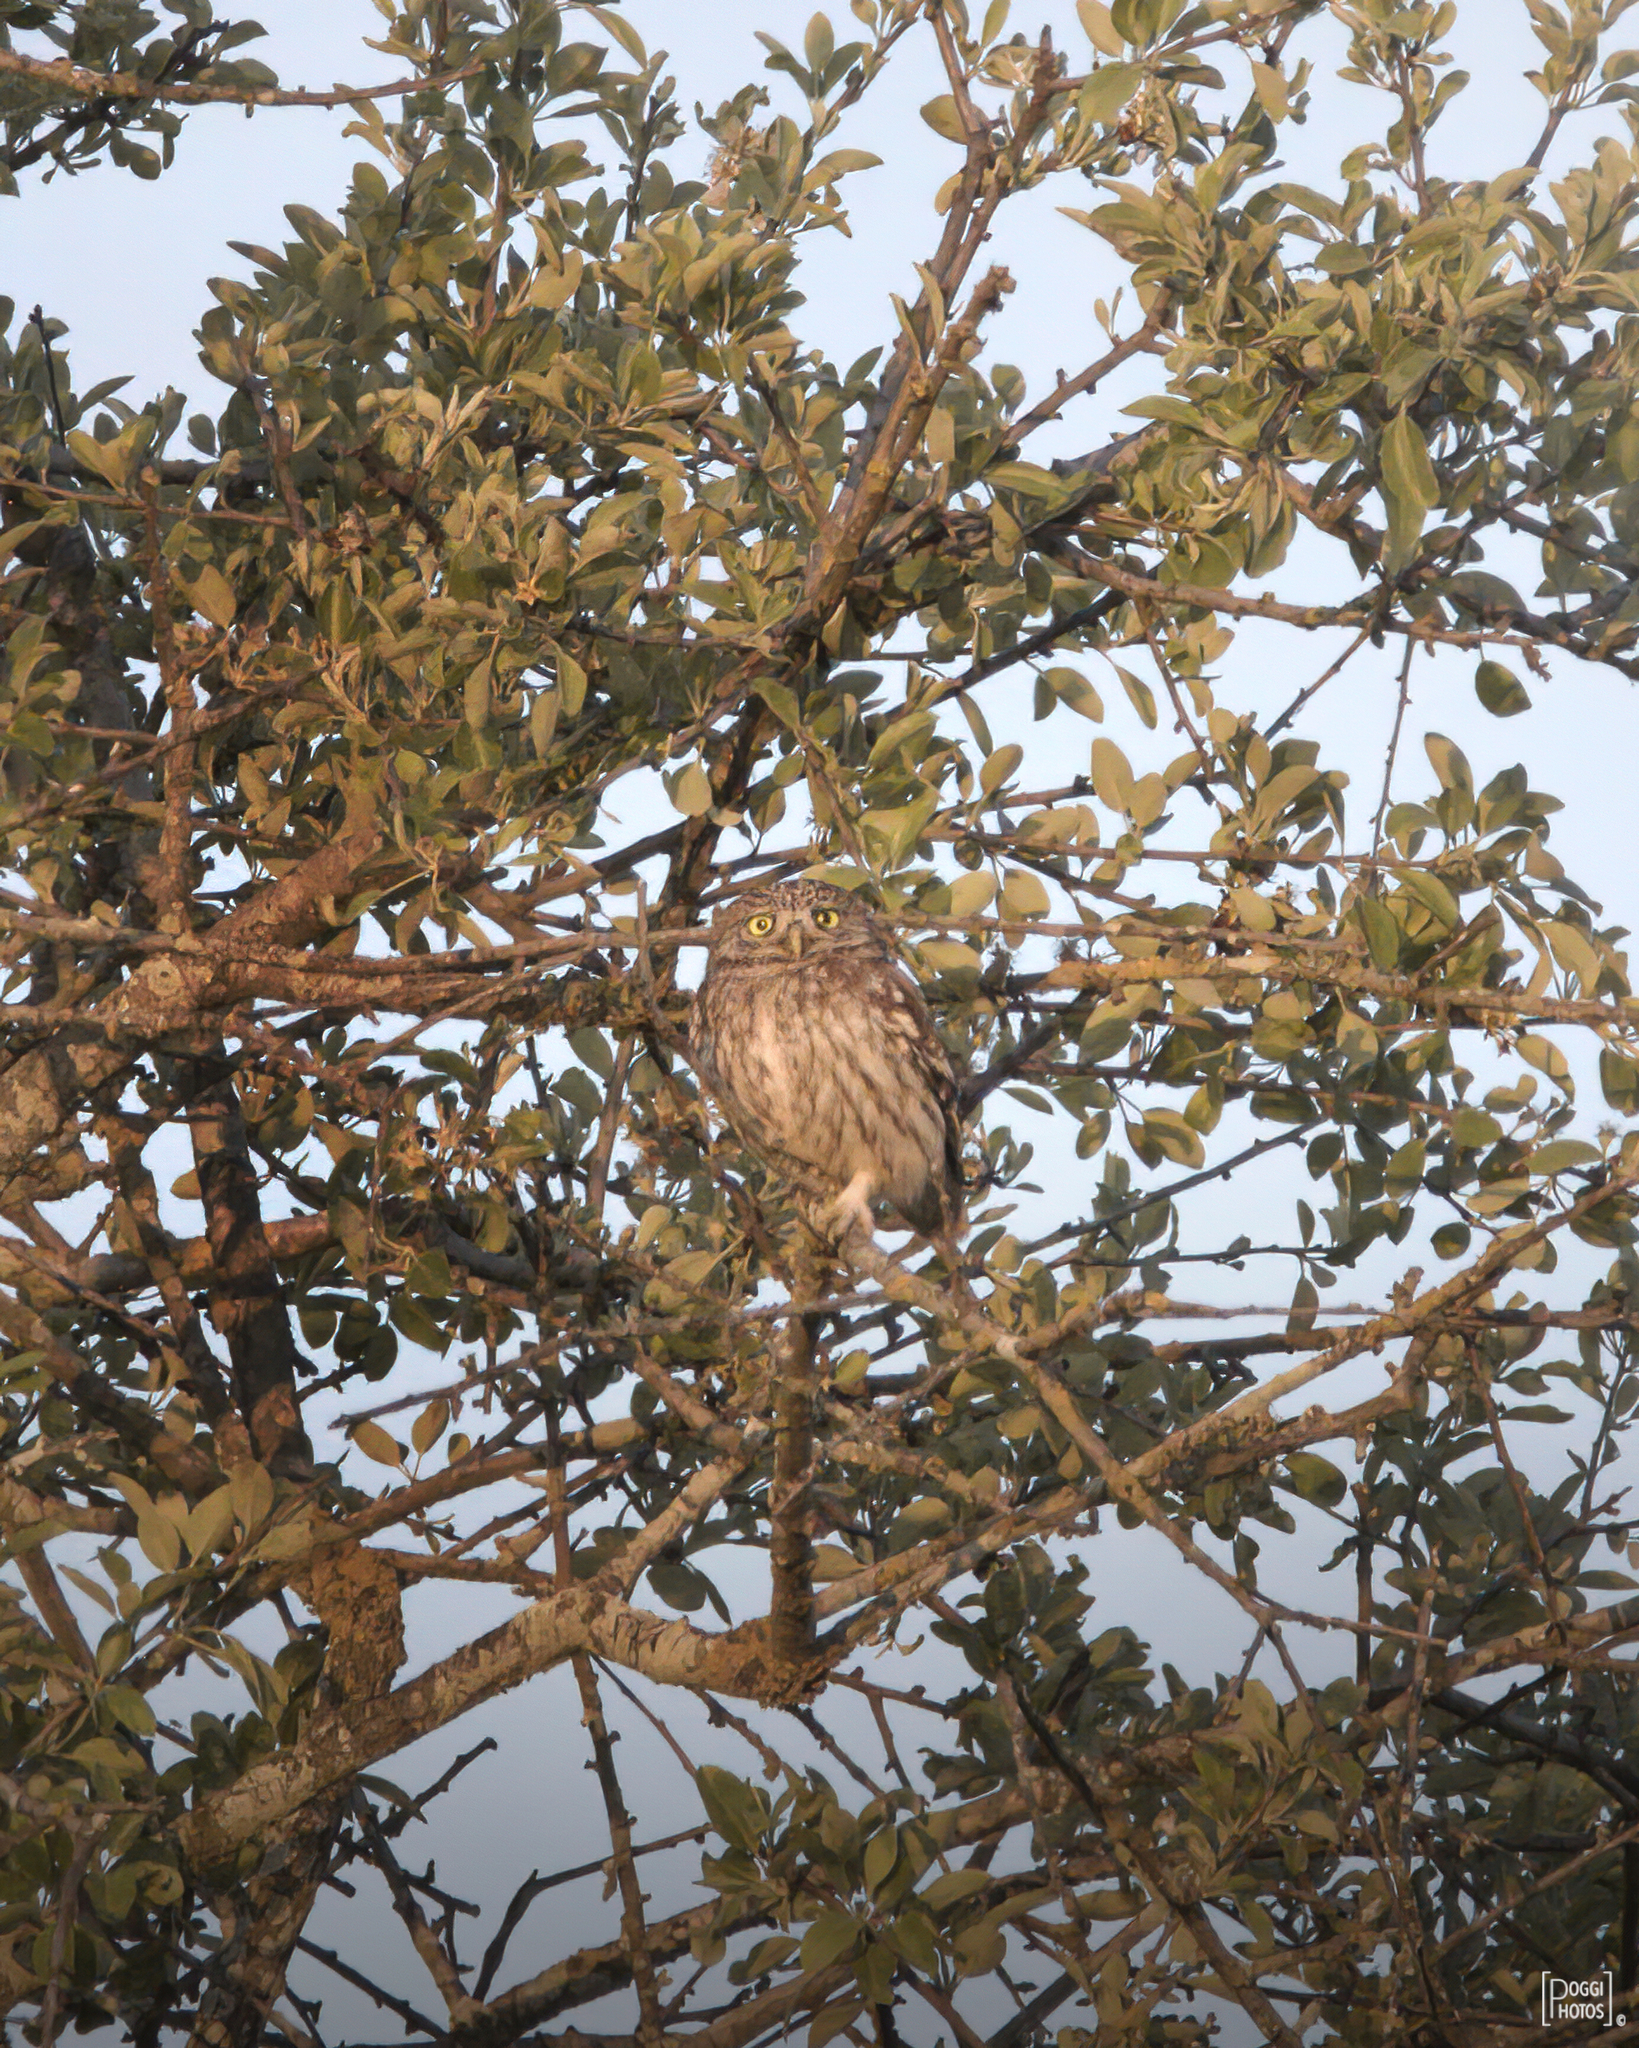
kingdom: Animalia
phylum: Chordata
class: Aves
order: Strigiformes
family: Strigidae
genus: Athene
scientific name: Athene noctua
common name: Little owl
